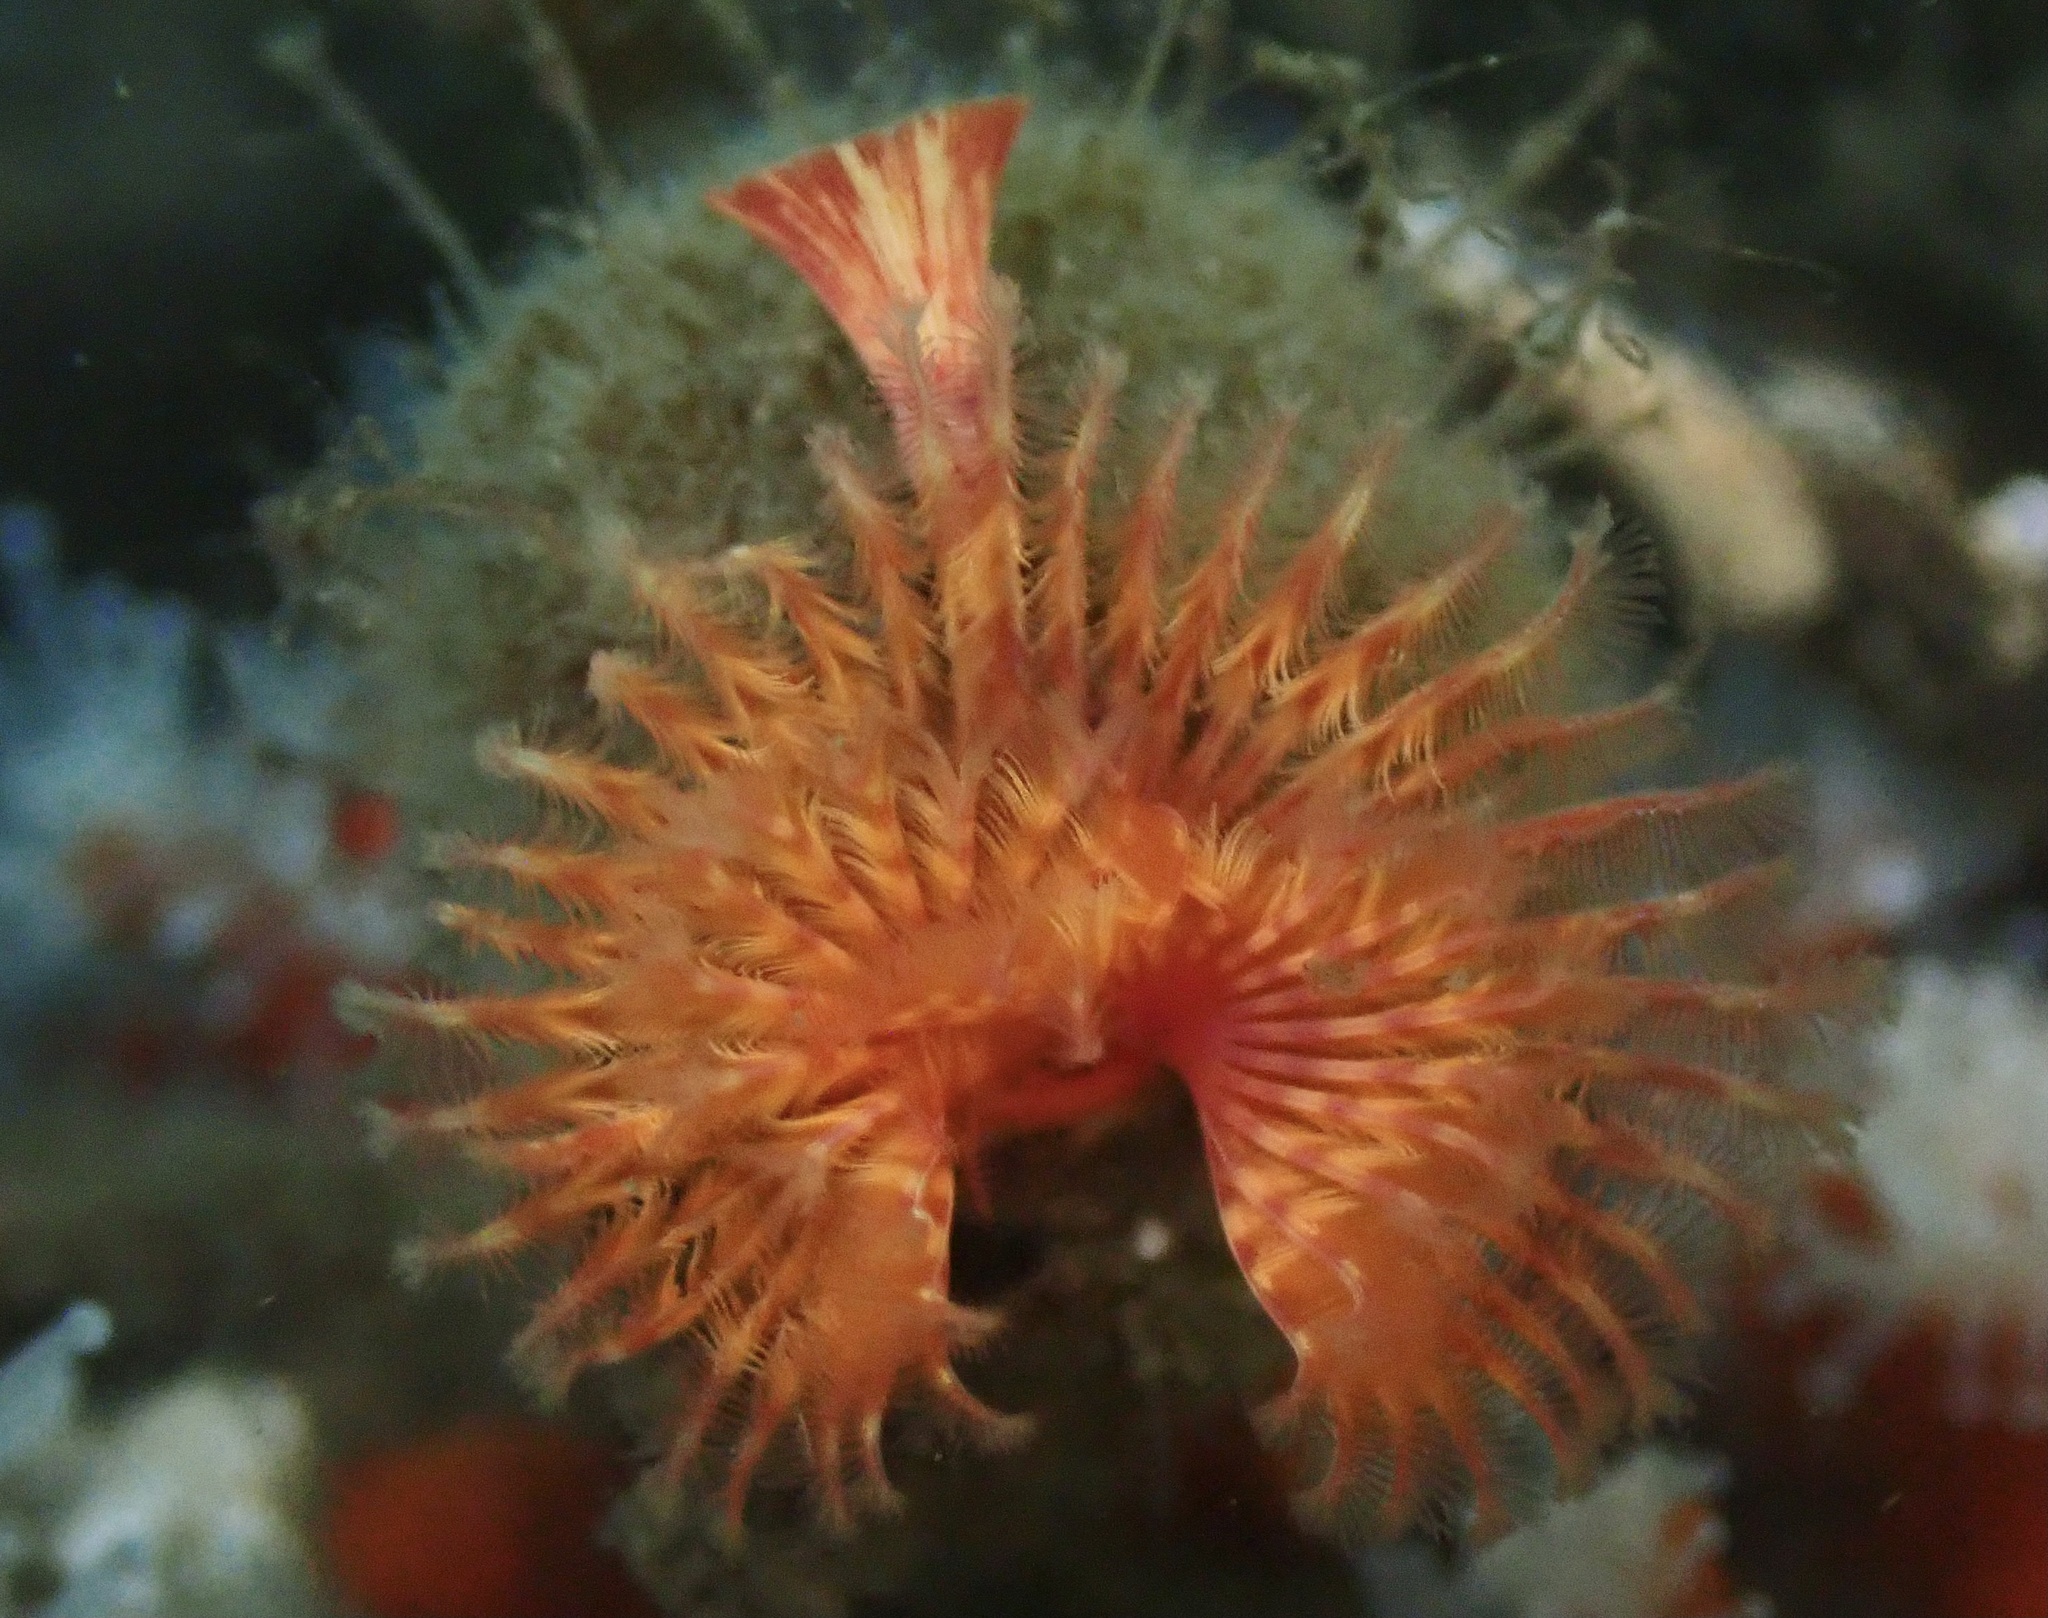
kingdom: Animalia
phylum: Annelida
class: Polychaeta
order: Sabellida
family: Serpulidae
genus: Serpula
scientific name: Serpula columbiana
